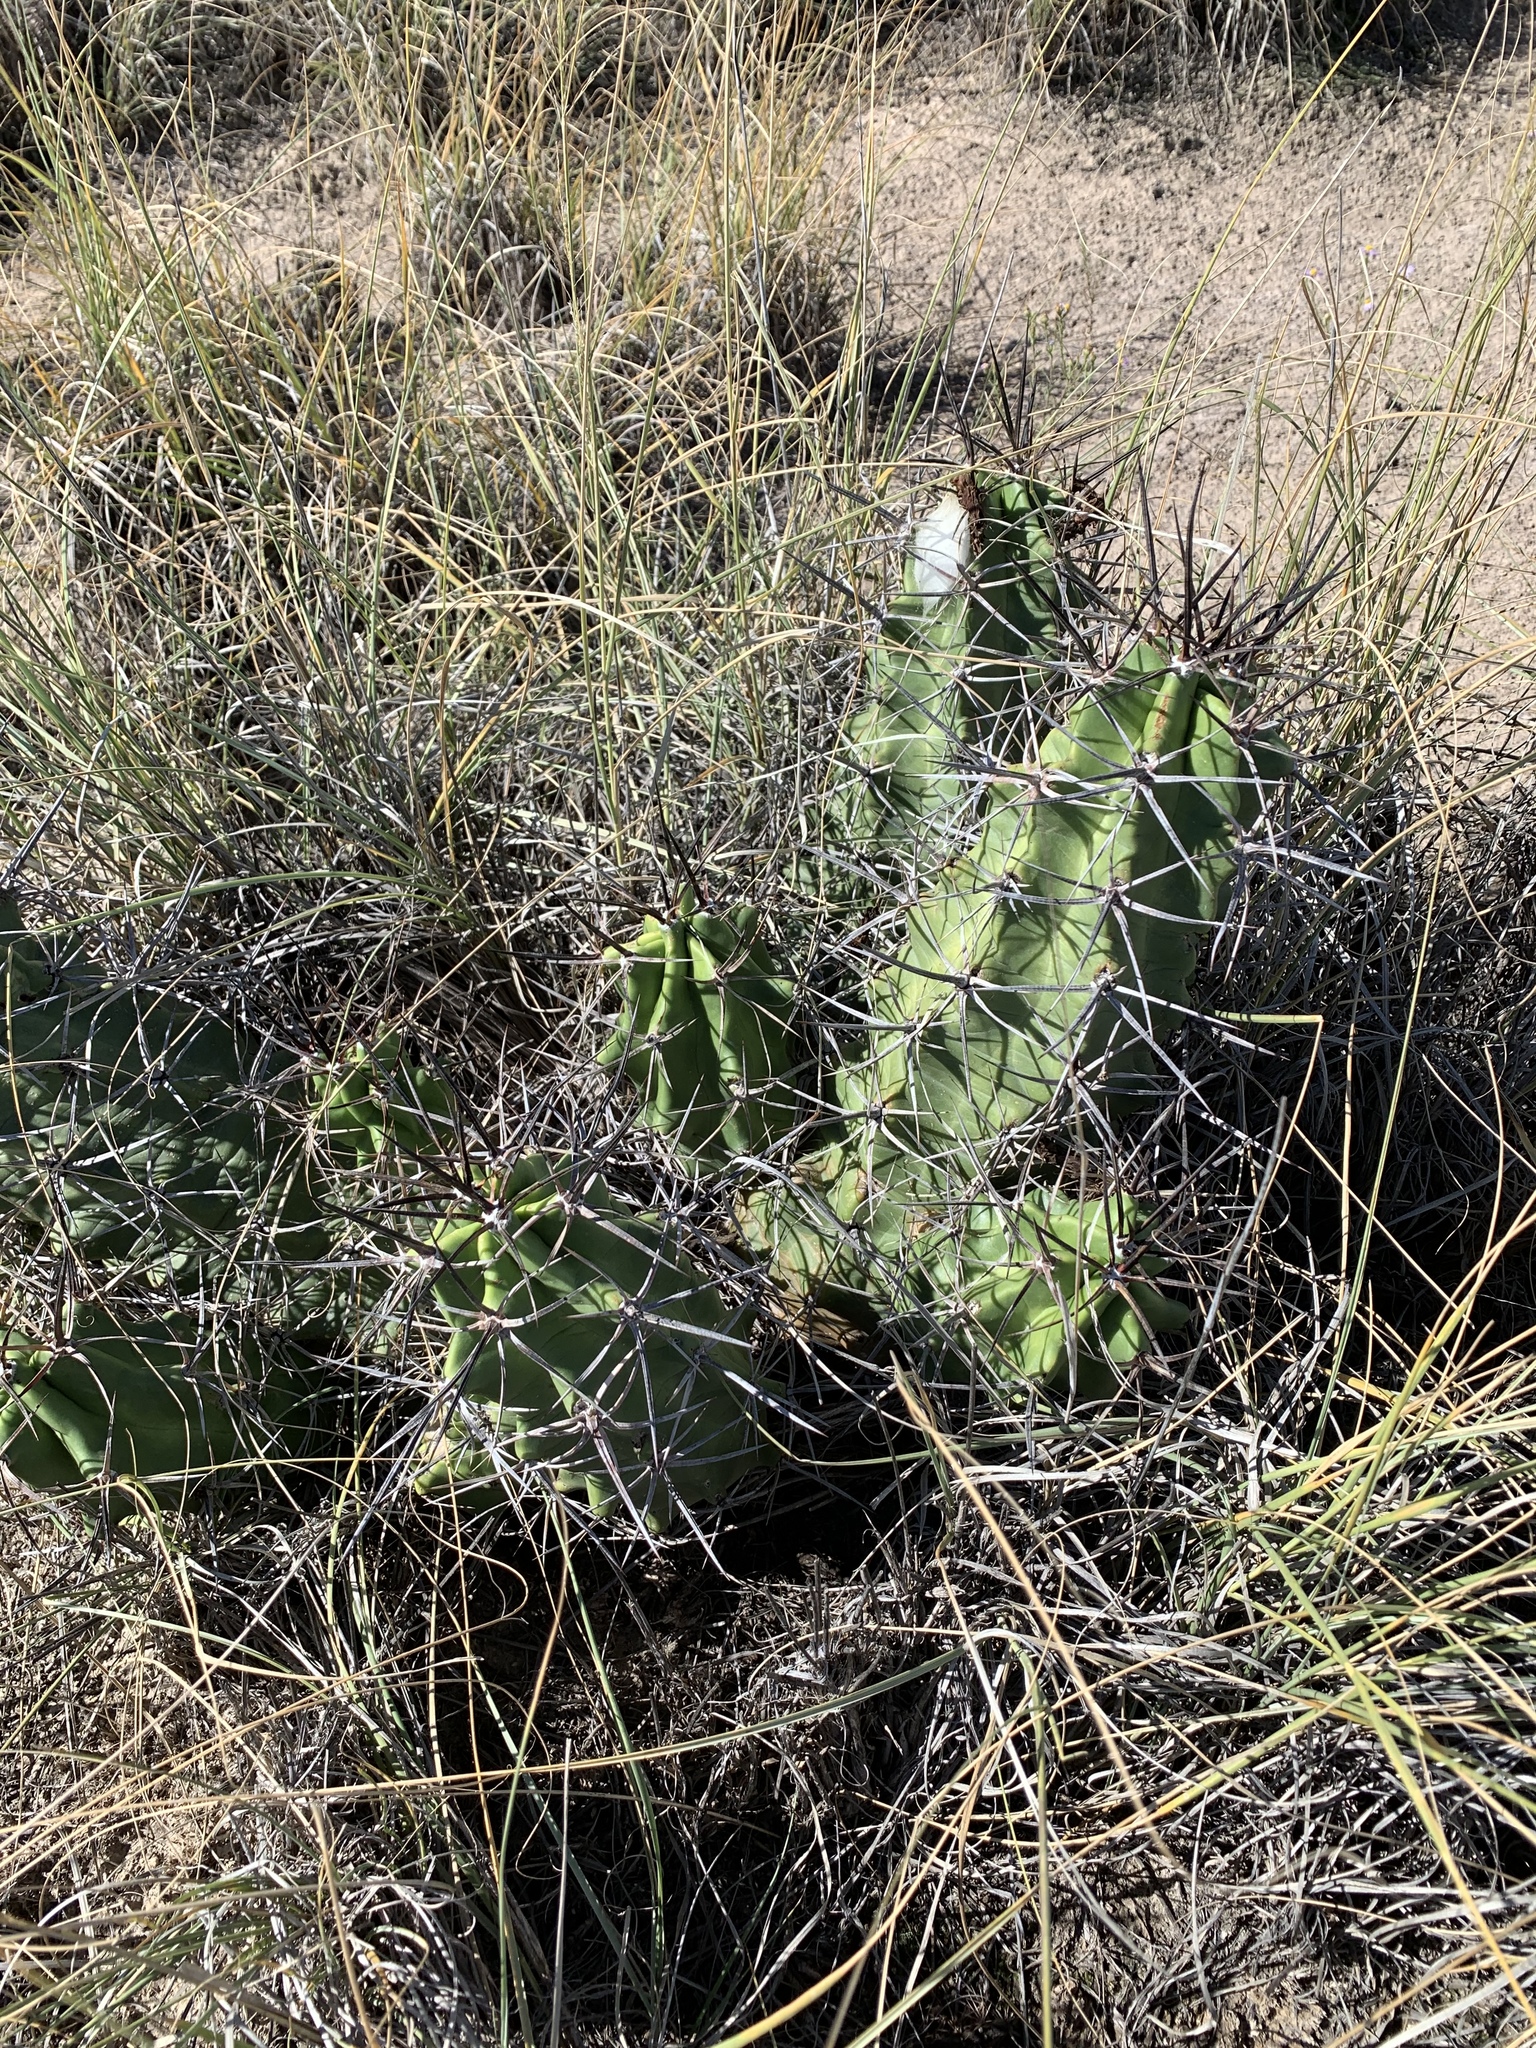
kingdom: Plantae
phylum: Tracheophyta
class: Magnoliopsida
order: Caryophyllales
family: Cactaceae
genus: Echinocereus
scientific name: Echinocereus triglochidiatus
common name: Claretcup hedgehog
